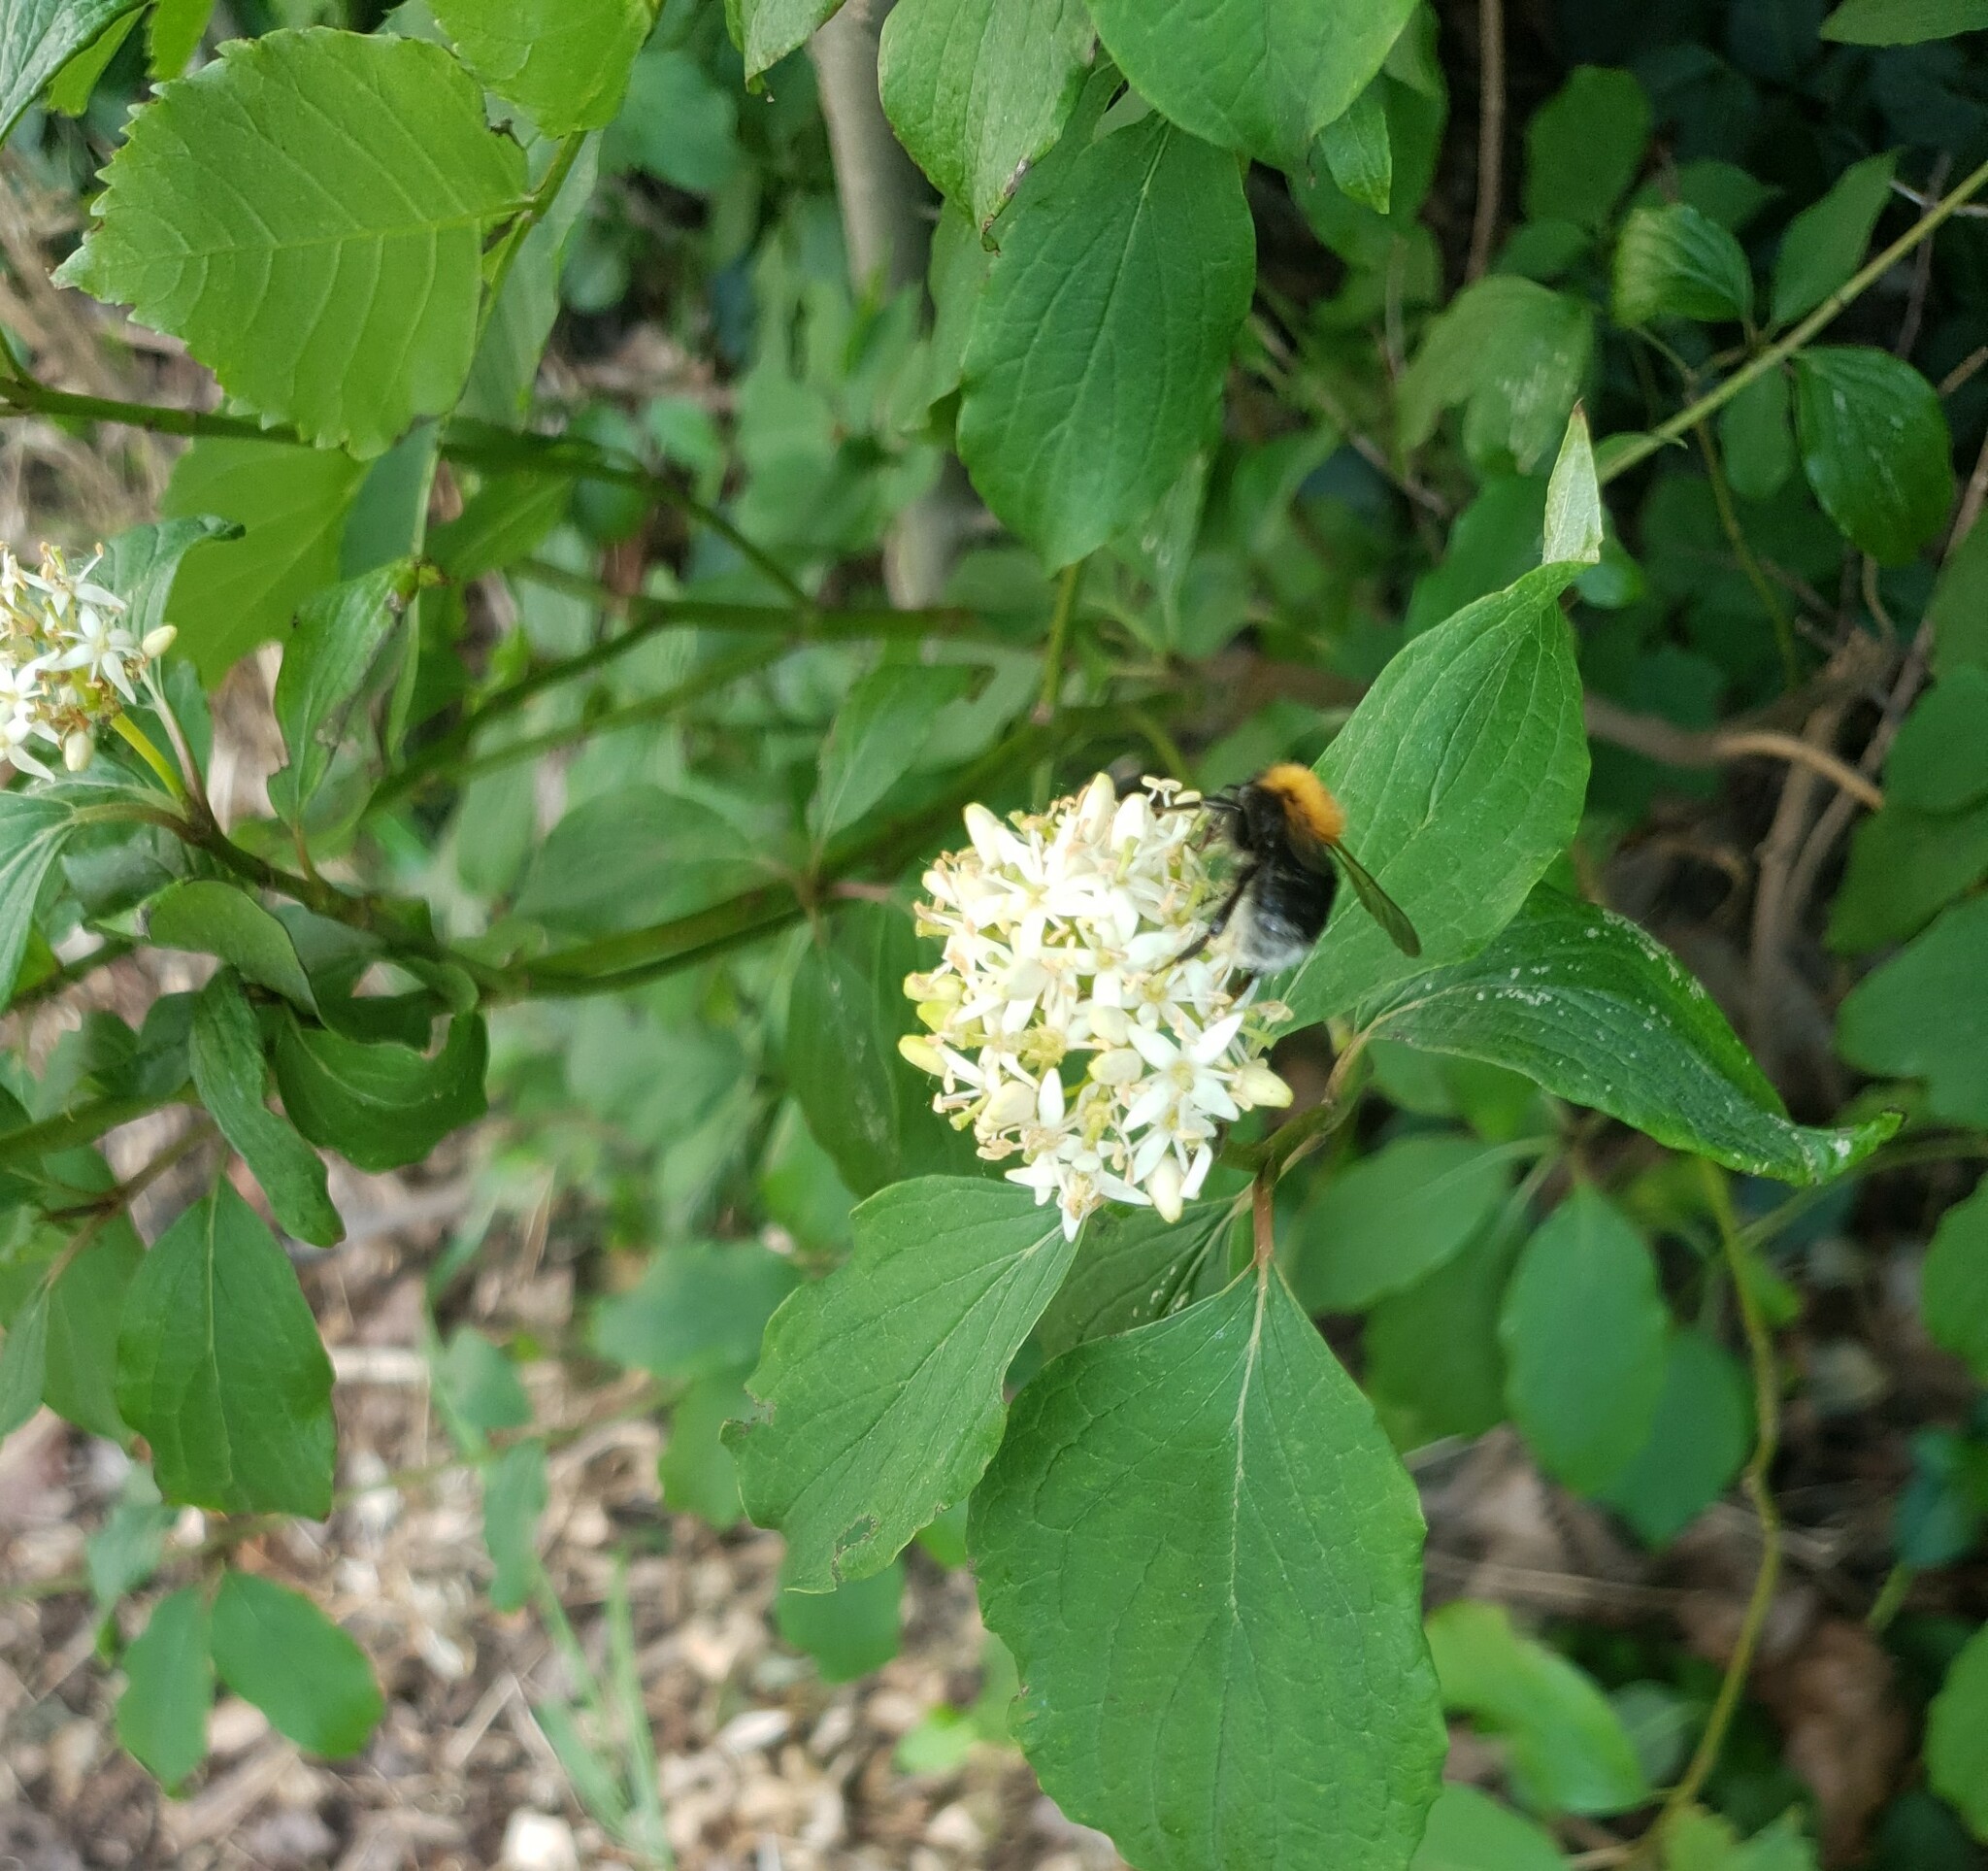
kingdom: Animalia
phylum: Arthropoda
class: Insecta
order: Hymenoptera
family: Apidae
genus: Bombus
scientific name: Bombus hypnorum
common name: New garden bumblebee
